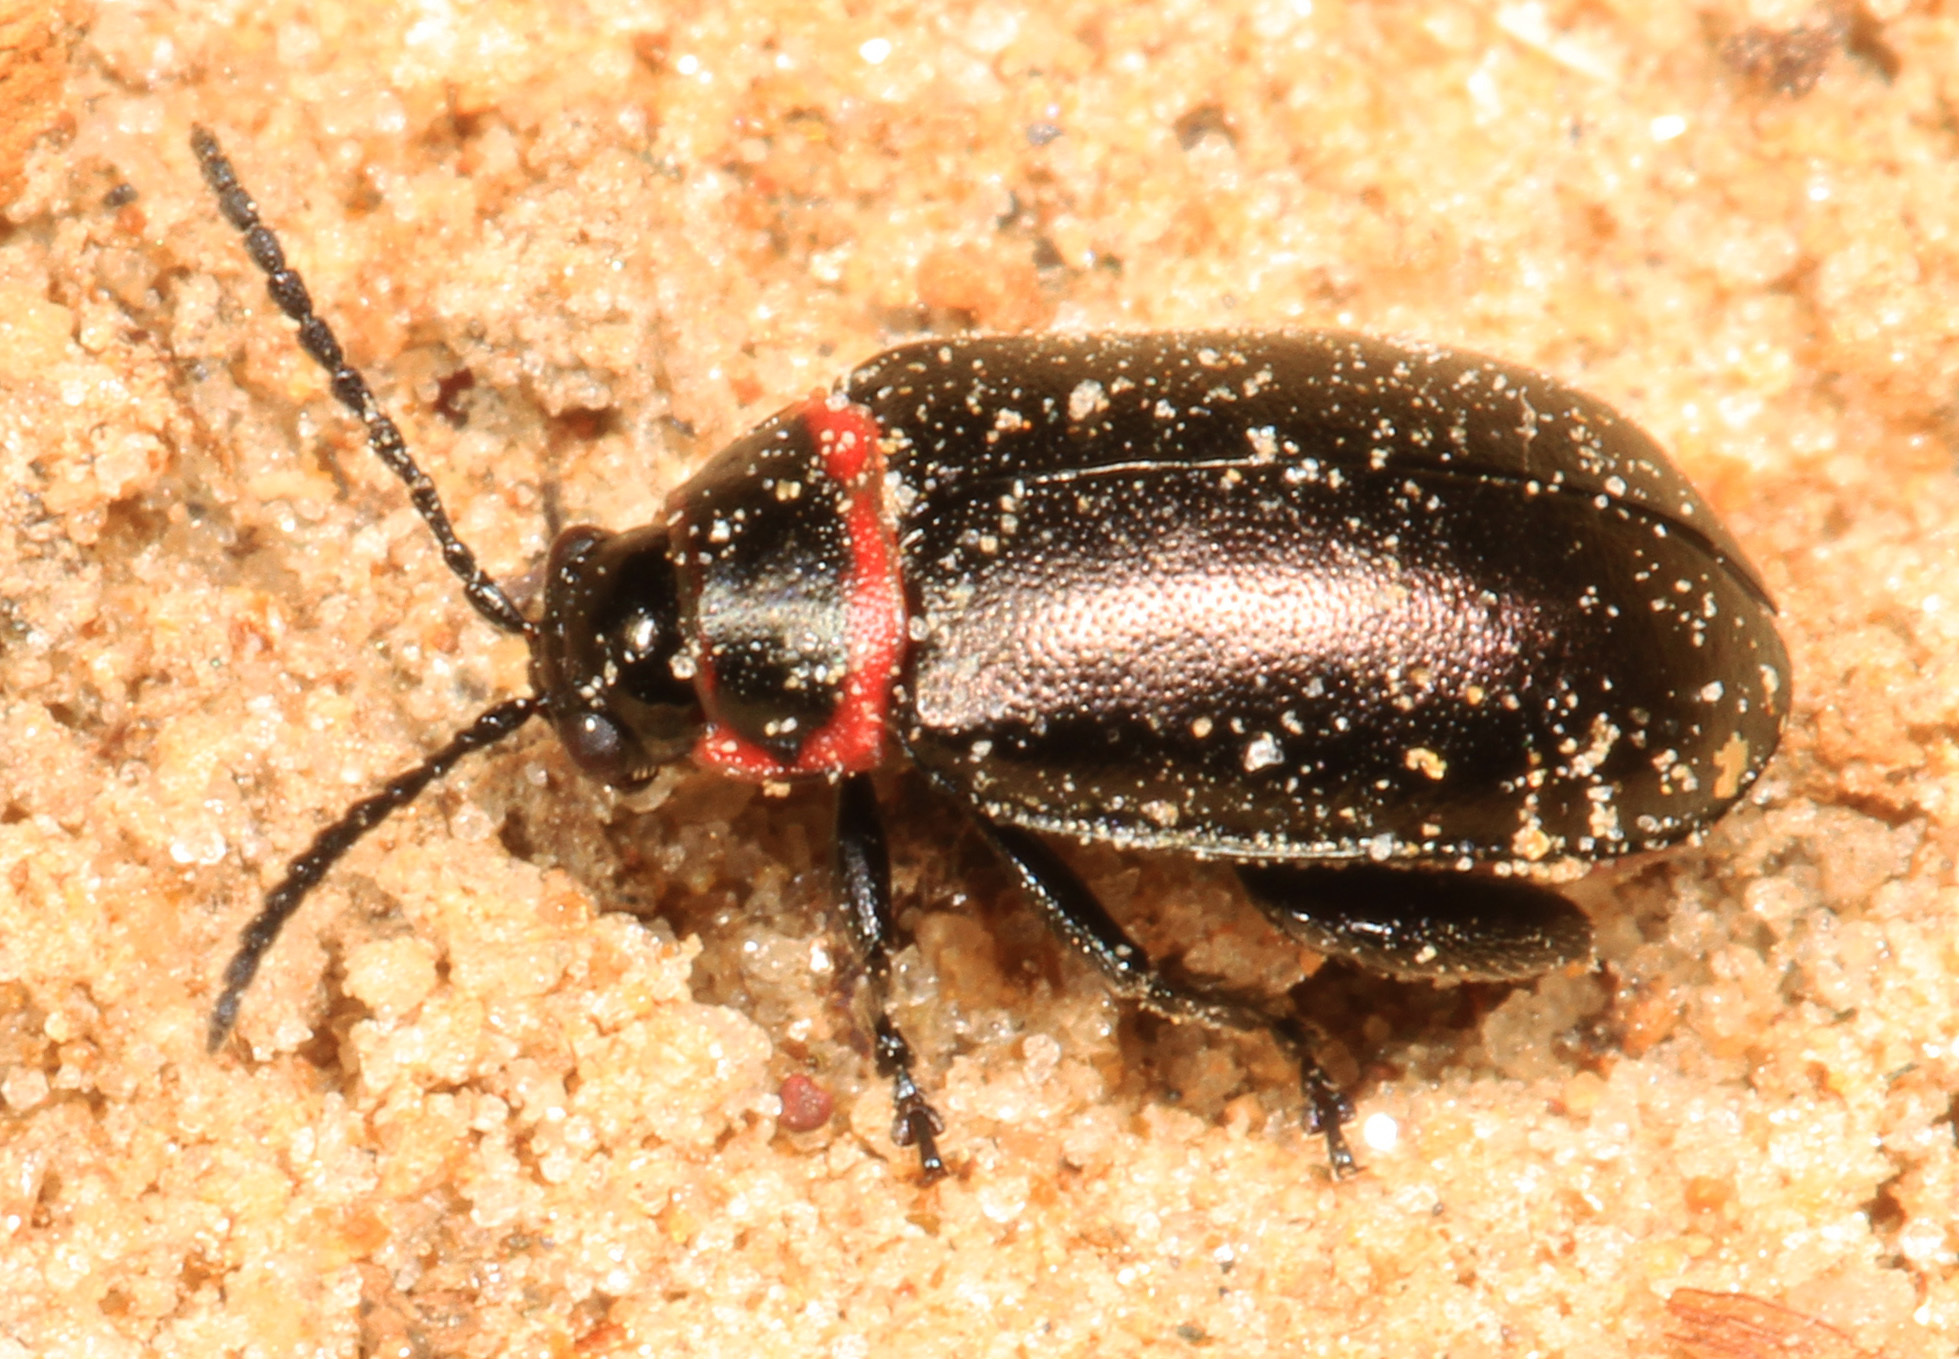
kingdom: Animalia
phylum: Arthropoda
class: Insecta
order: Coleoptera
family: Chrysomelidae
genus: Kuschelina
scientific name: Kuschelina vians
